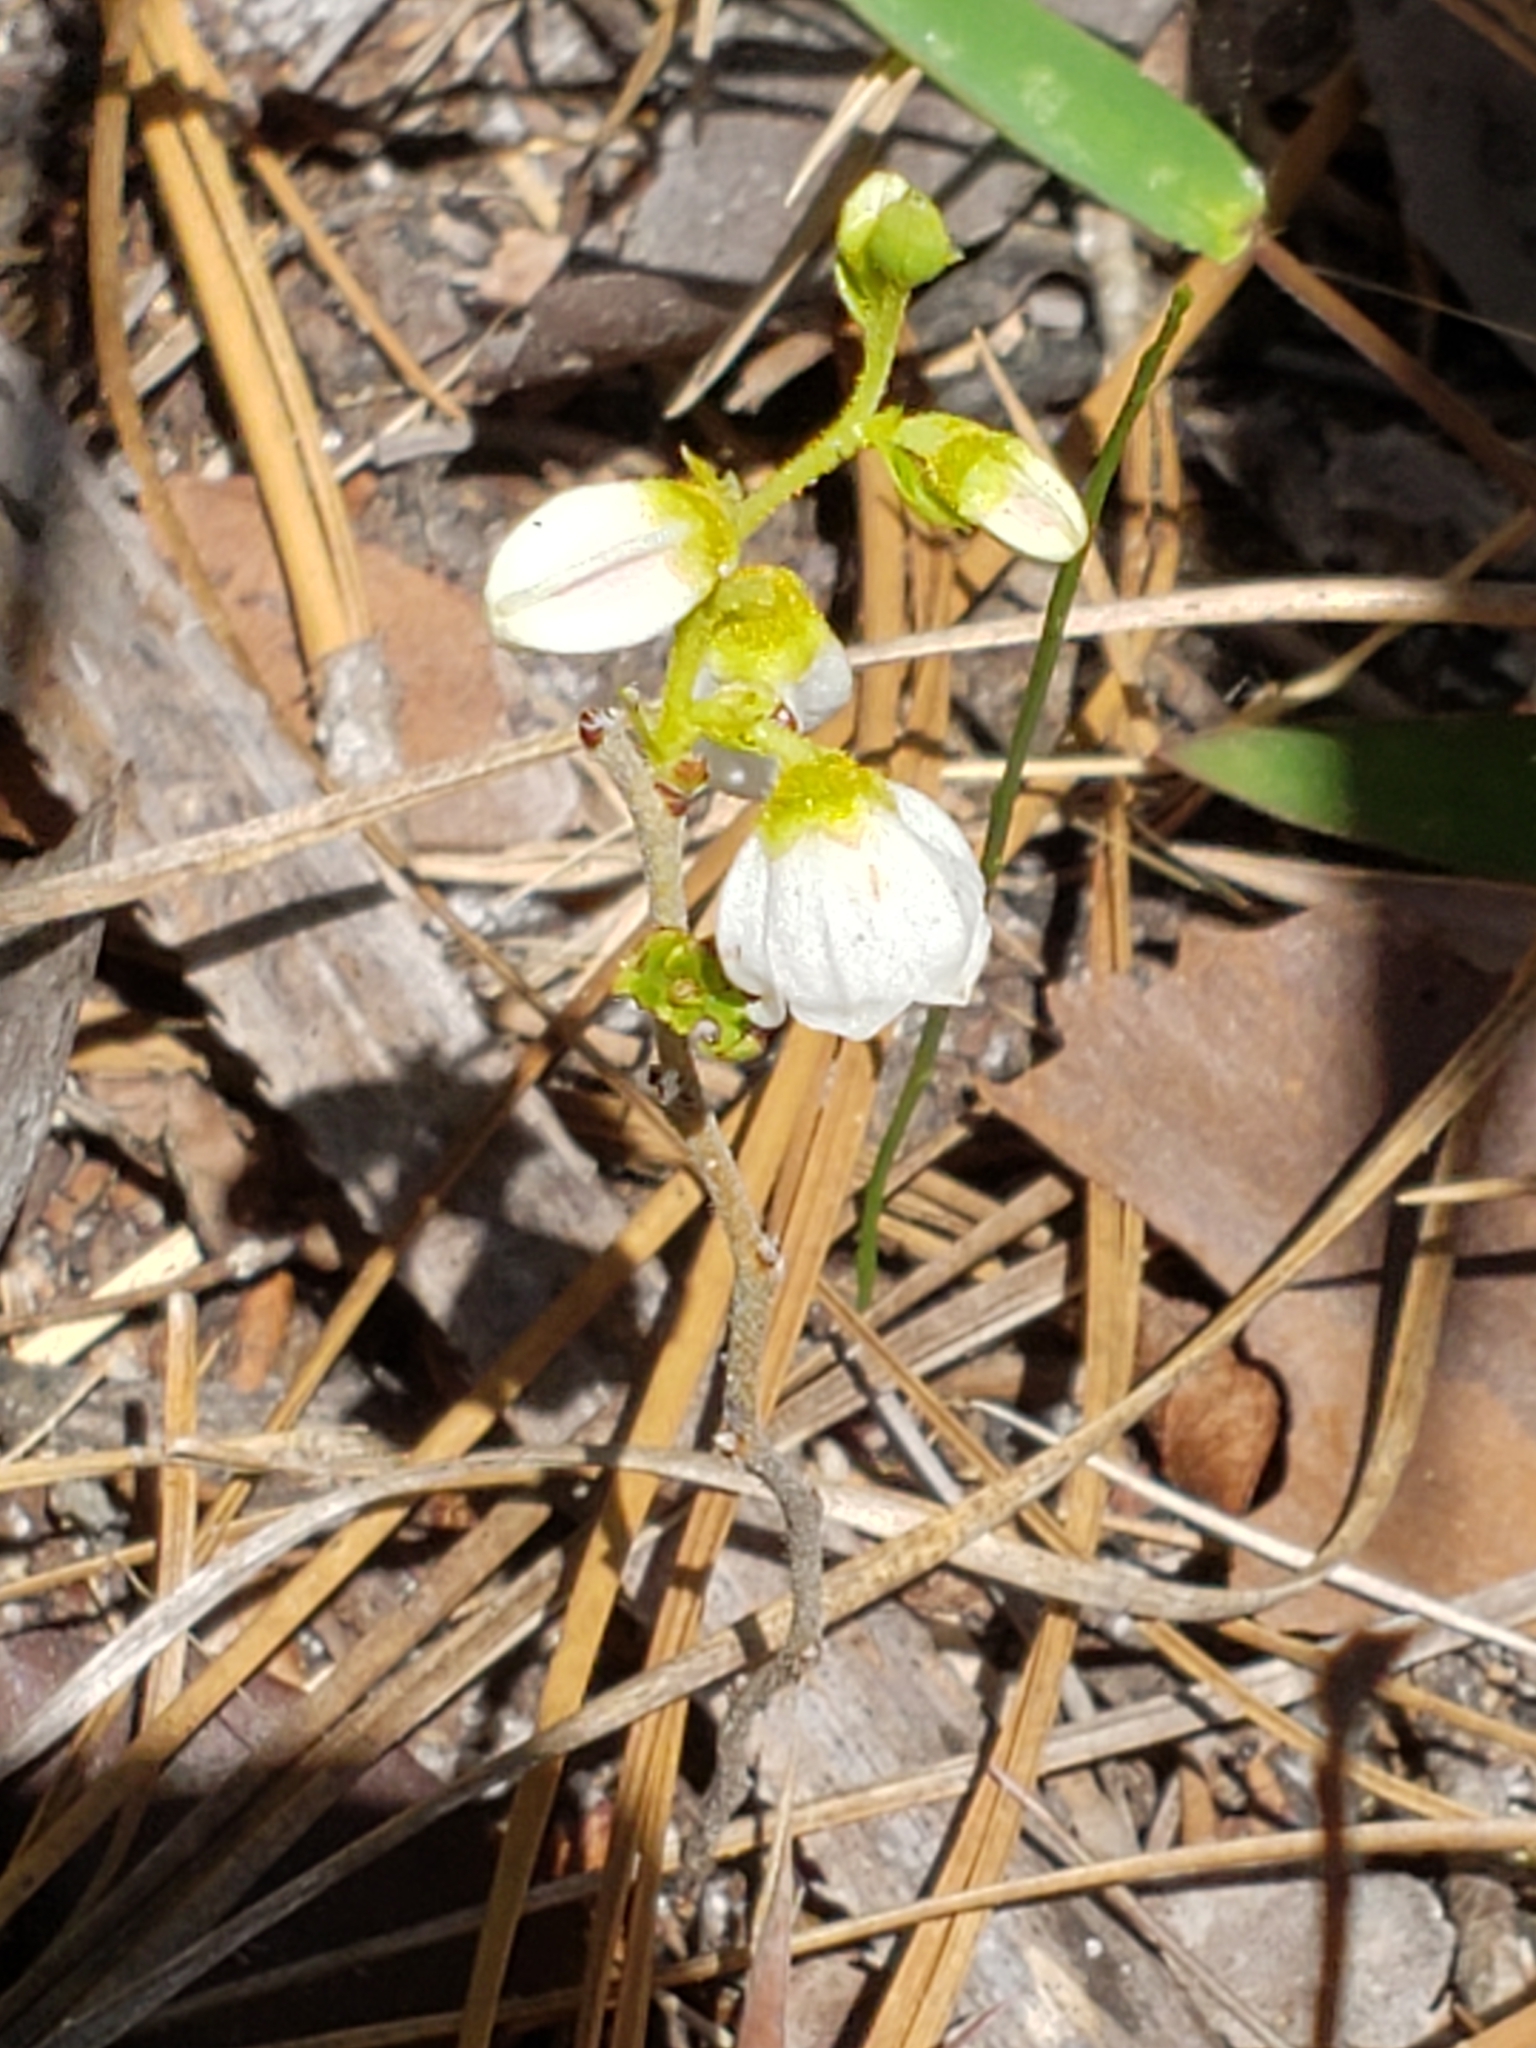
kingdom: Plantae
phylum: Tracheophyta
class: Magnoliopsida
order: Ericales
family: Ericaceae
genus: Gaylussacia
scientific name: Gaylussacia dumosa
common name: Dwarf huckleberry
